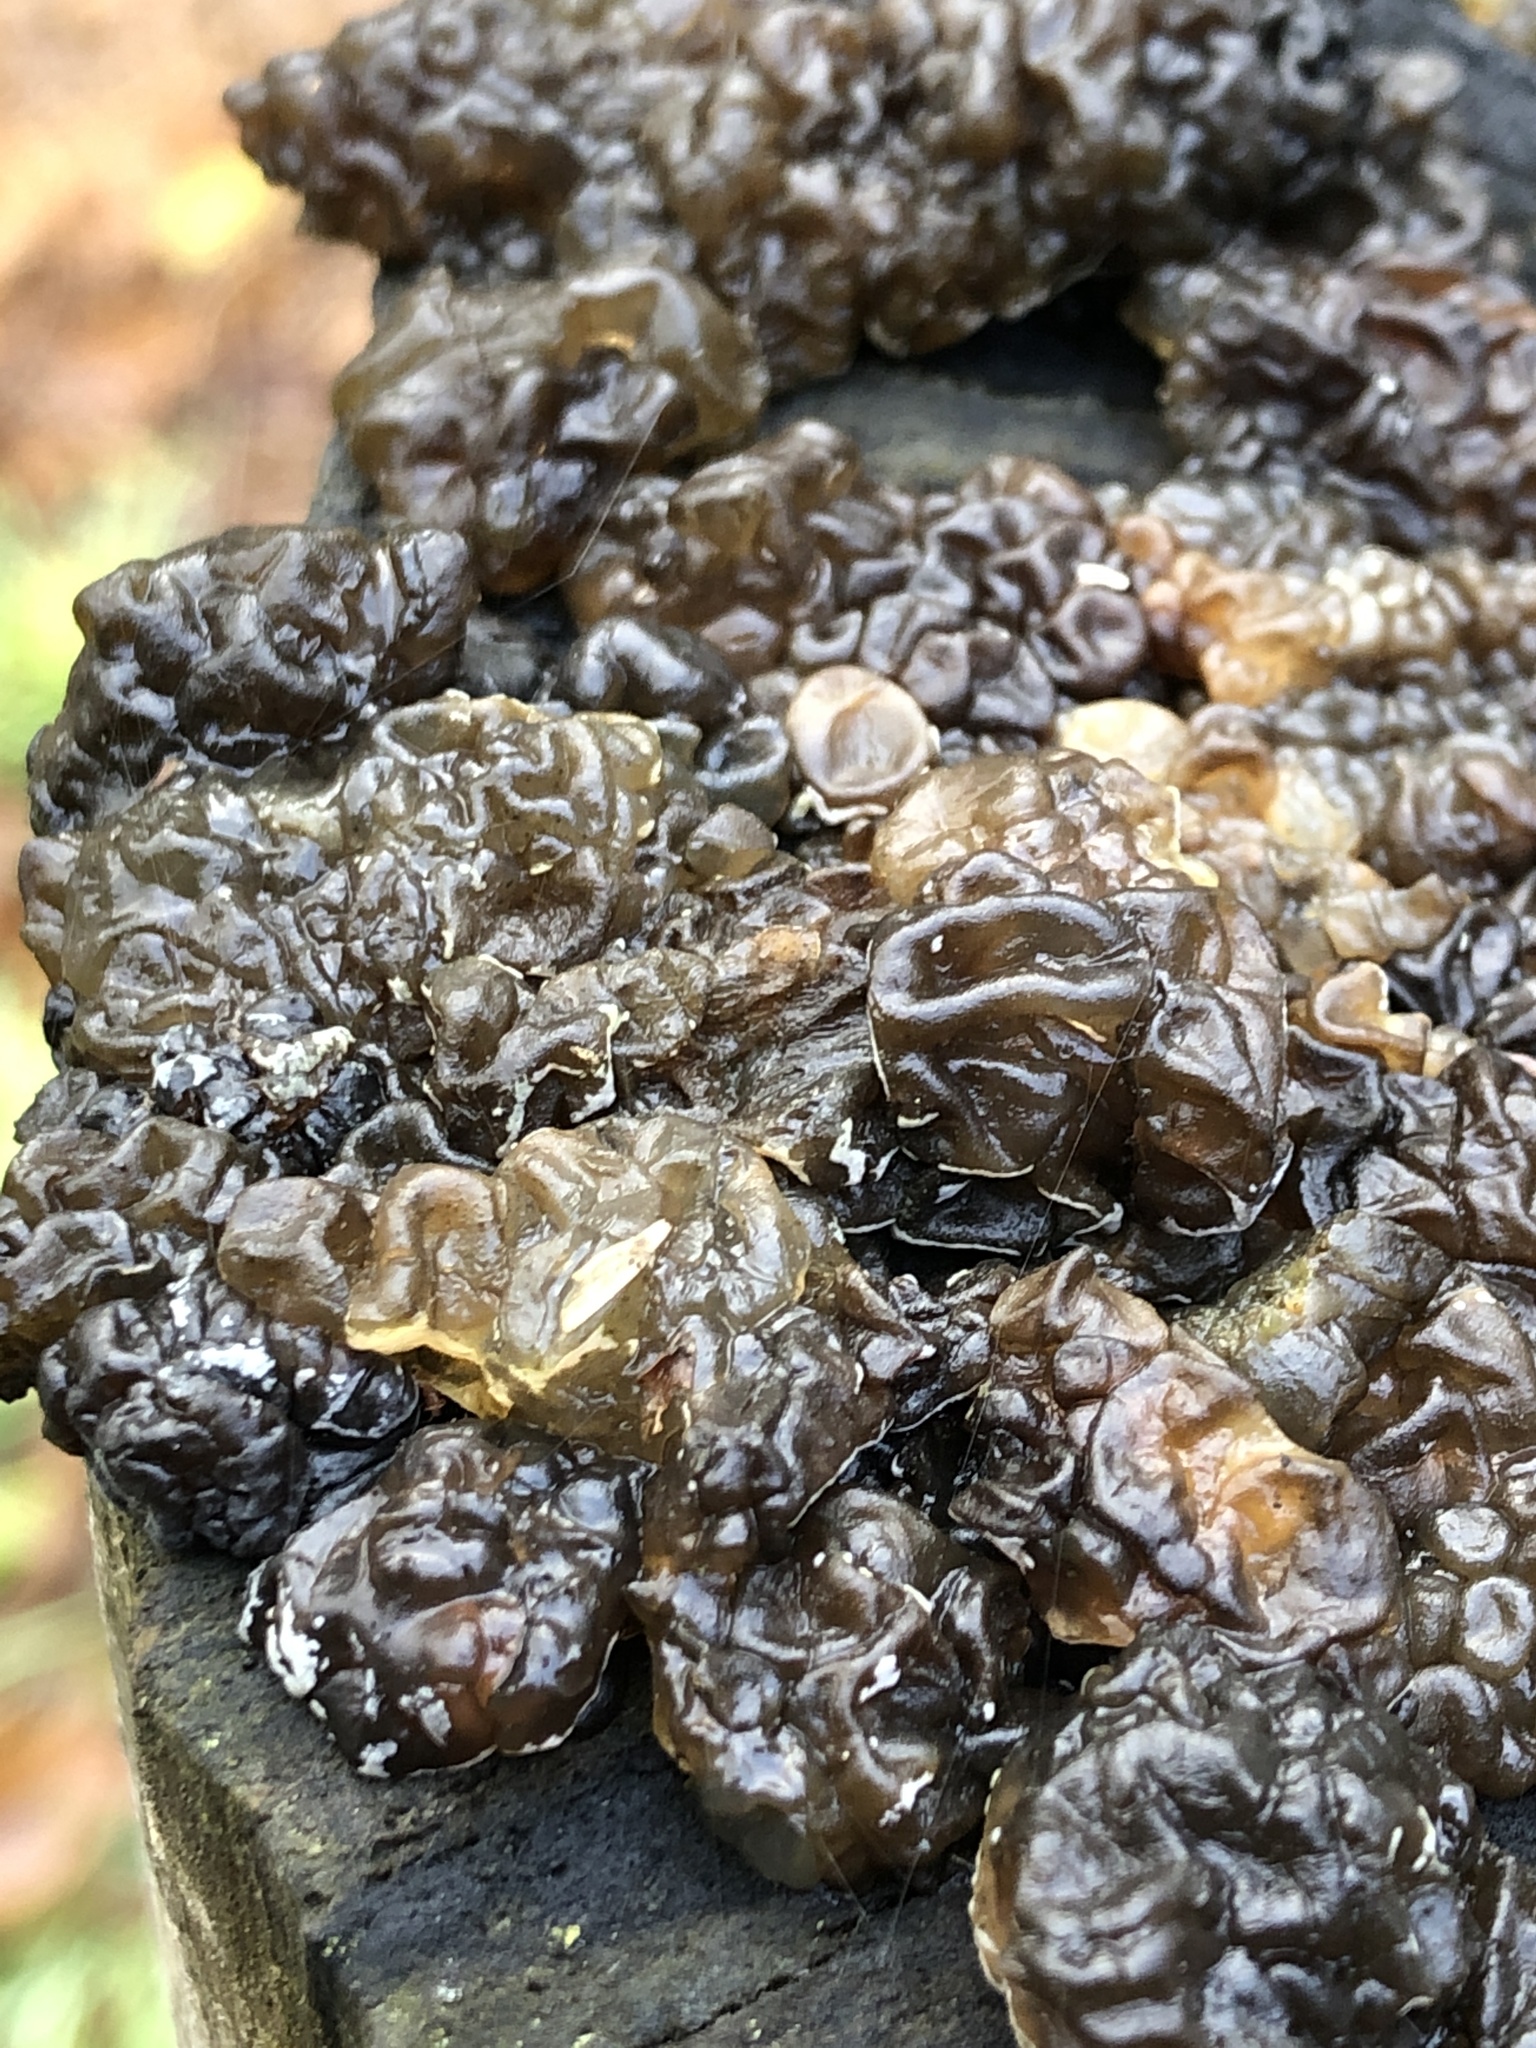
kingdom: Fungi
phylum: Basidiomycota
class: Agaricomycetes
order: Auriculariales
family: Auriculariaceae
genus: Exidia
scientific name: Exidia glandulosa
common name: Witches' butter
